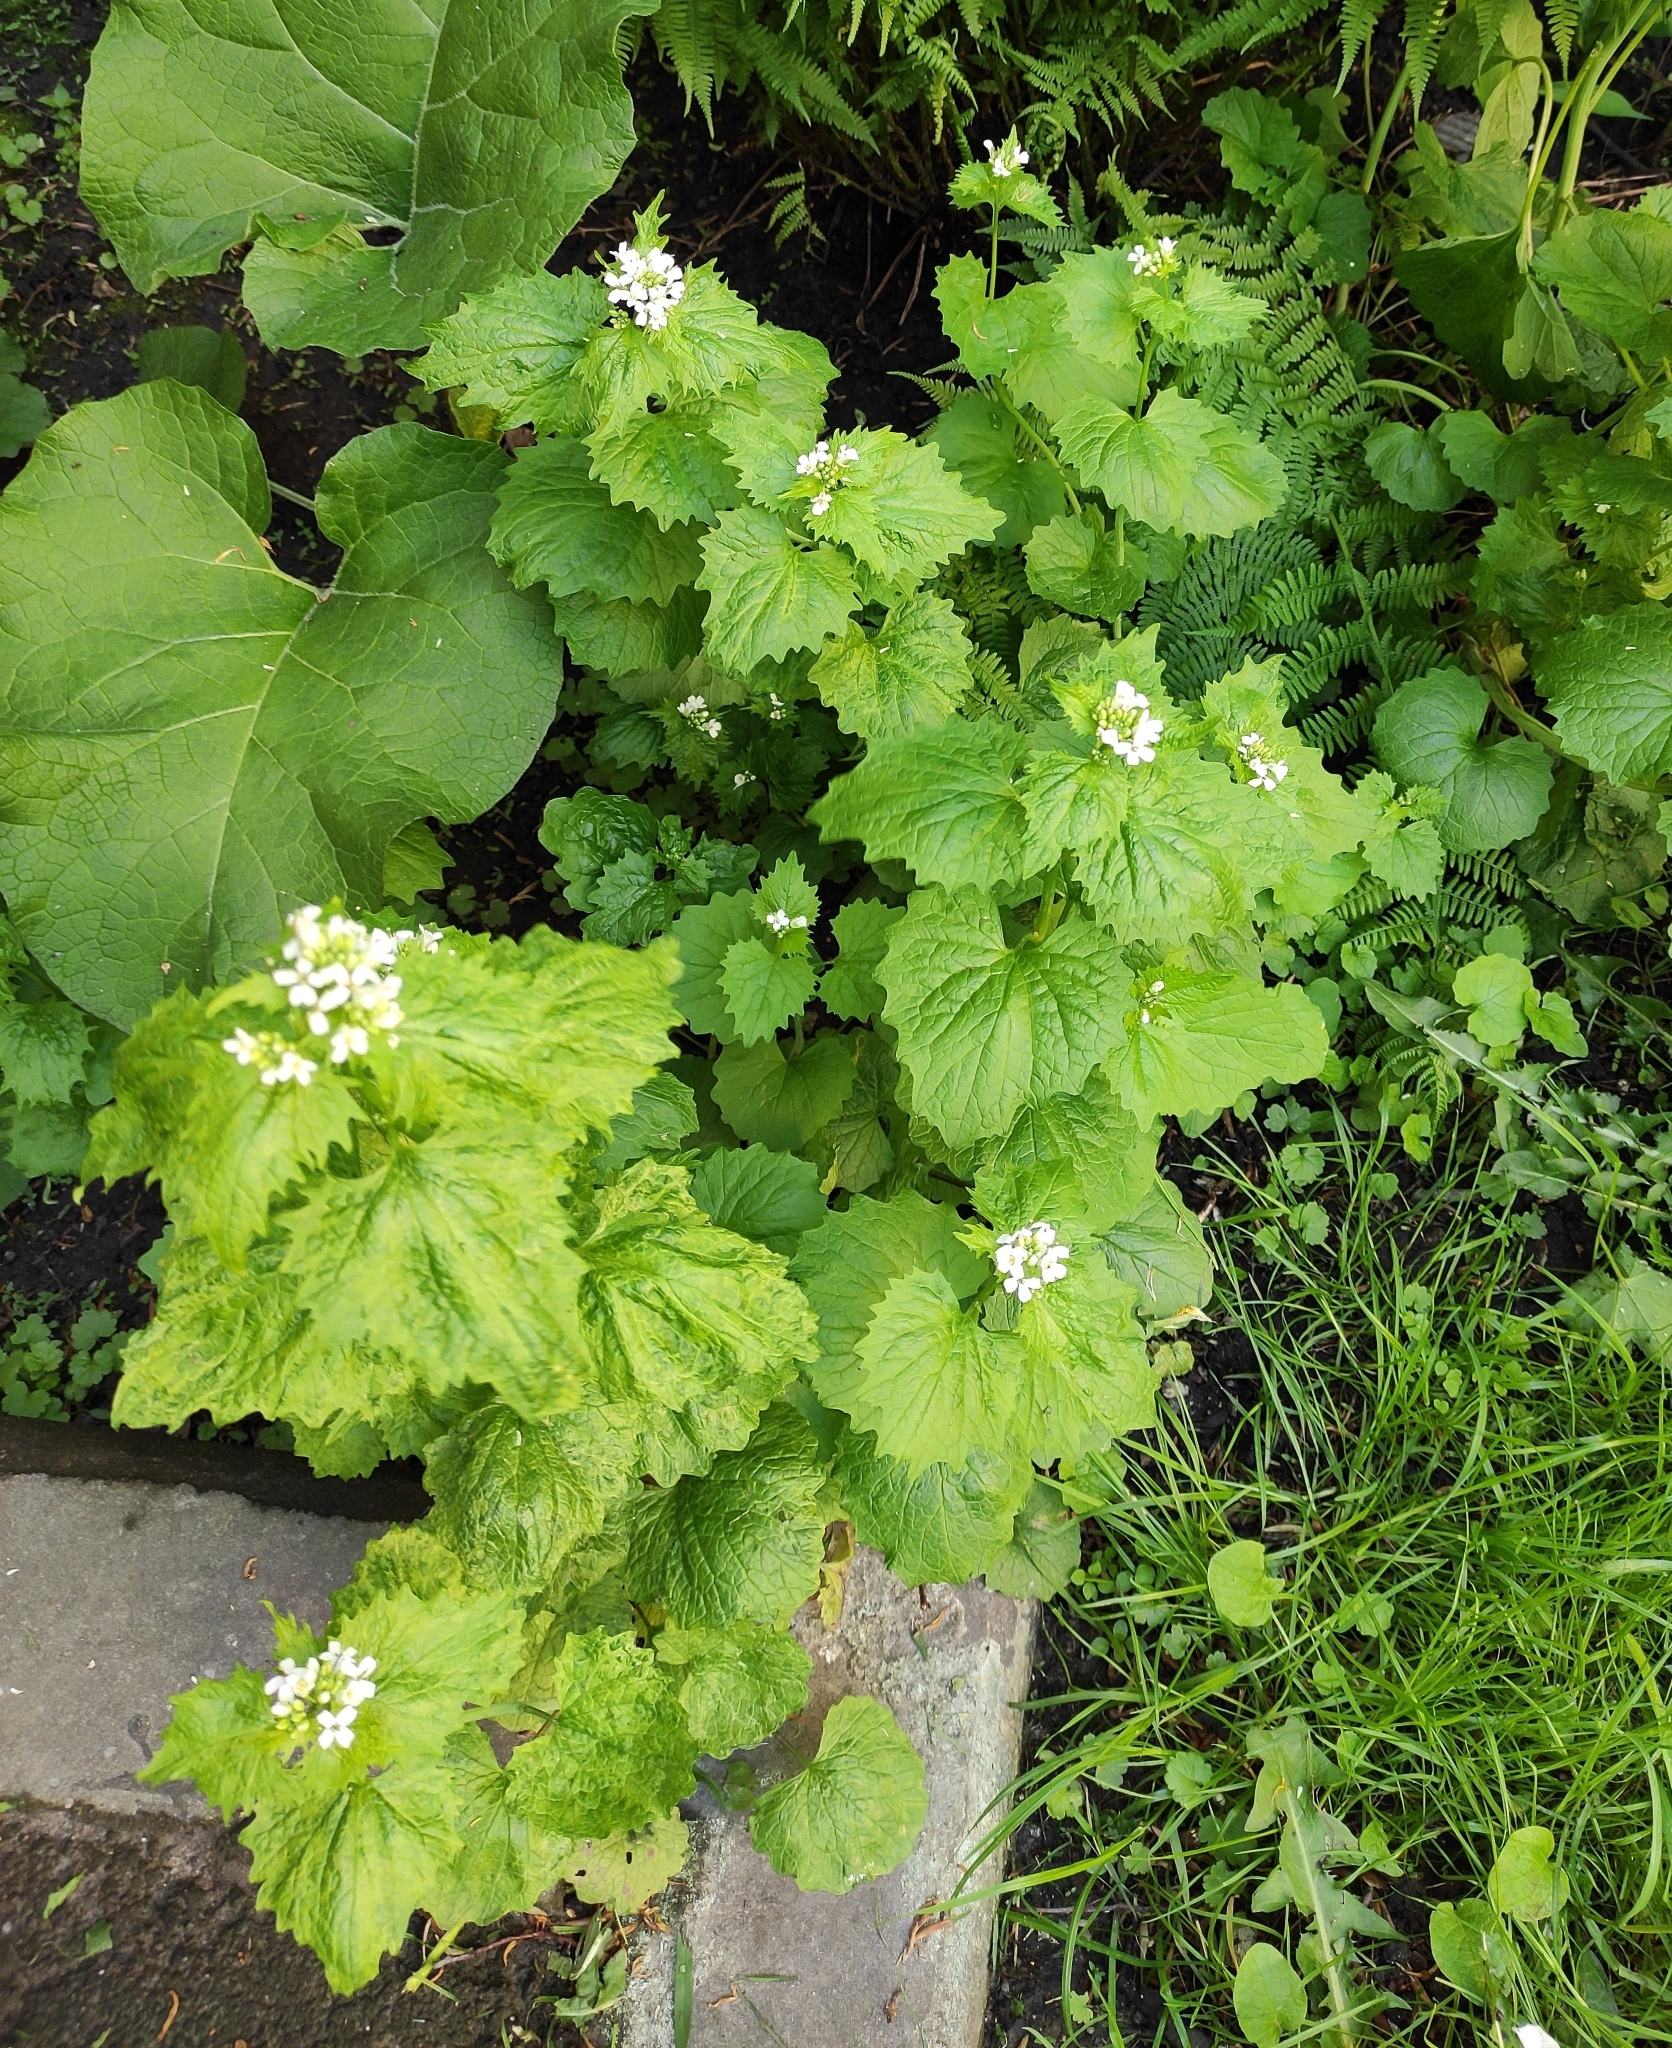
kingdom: Plantae
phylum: Tracheophyta
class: Magnoliopsida
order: Brassicales
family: Brassicaceae
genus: Alliaria
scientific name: Alliaria petiolata
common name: Garlic mustard
